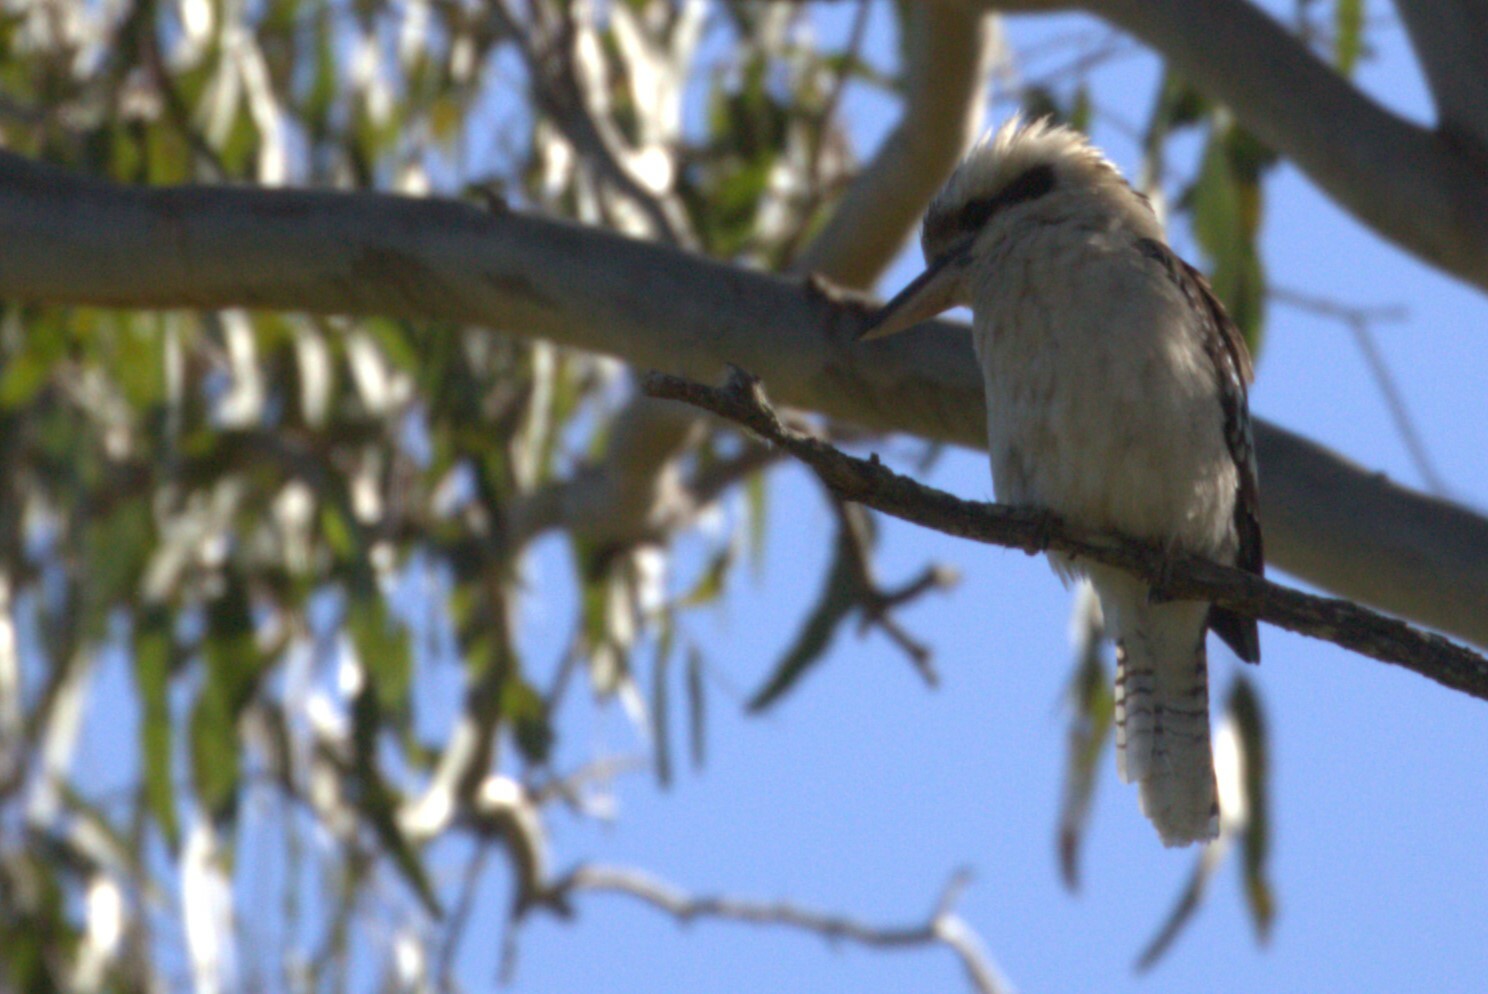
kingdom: Animalia
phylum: Chordata
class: Aves
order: Coraciiformes
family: Alcedinidae
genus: Dacelo
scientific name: Dacelo novaeguineae
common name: Laughing kookaburra
